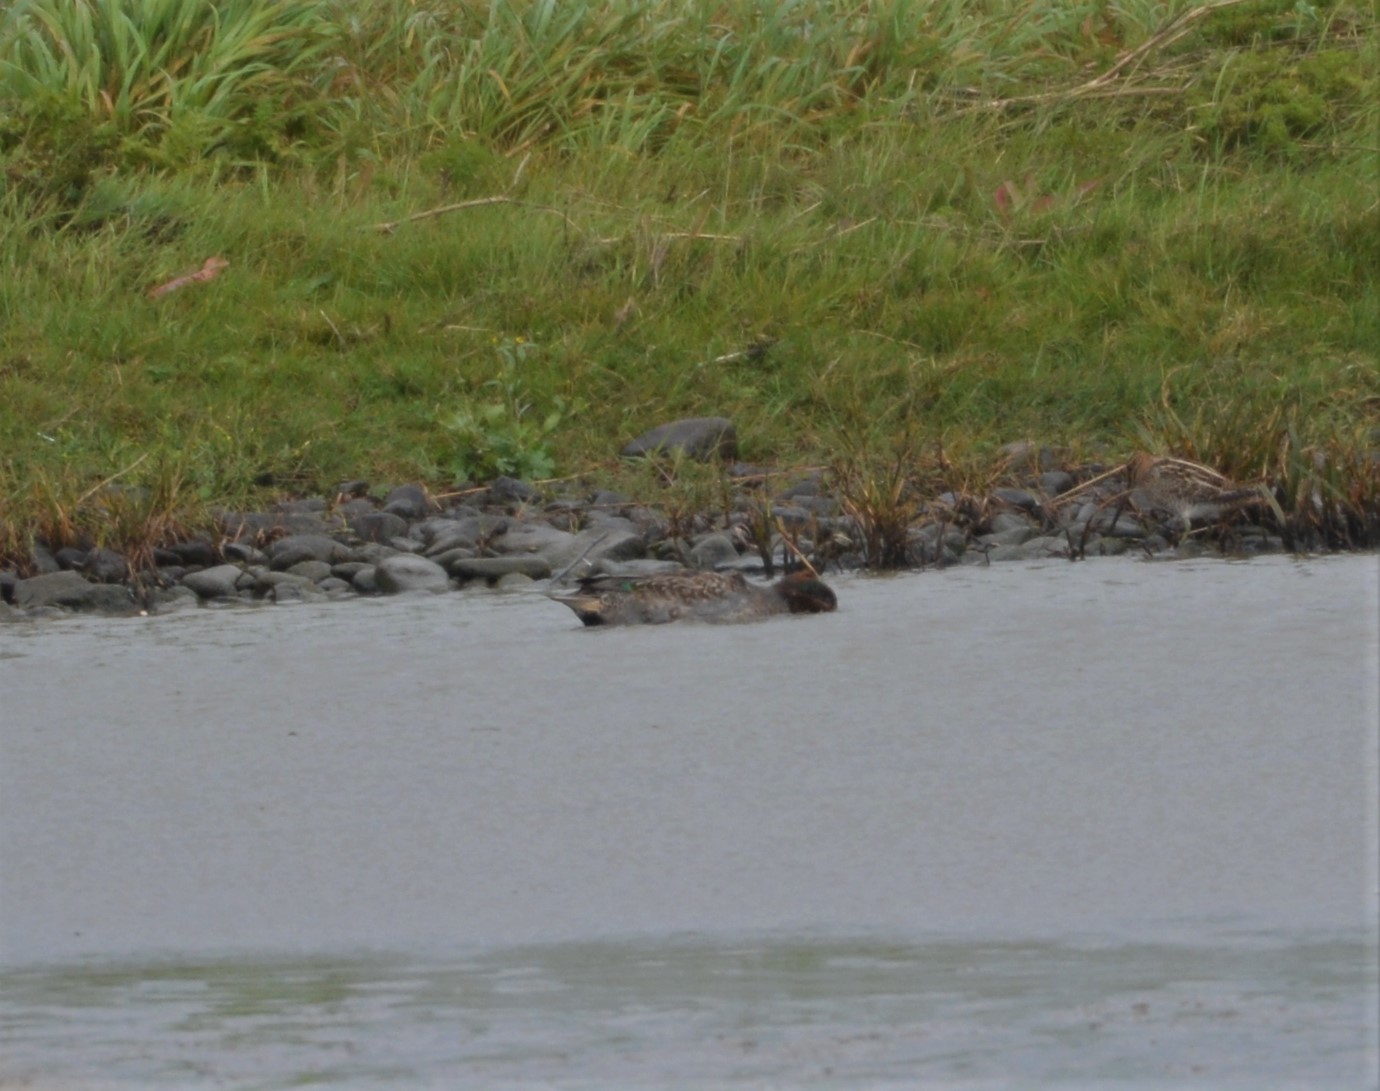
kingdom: Animalia
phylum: Chordata
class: Aves
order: Anseriformes
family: Anatidae
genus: Anas
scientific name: Anas crecca
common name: Eurasian teal
